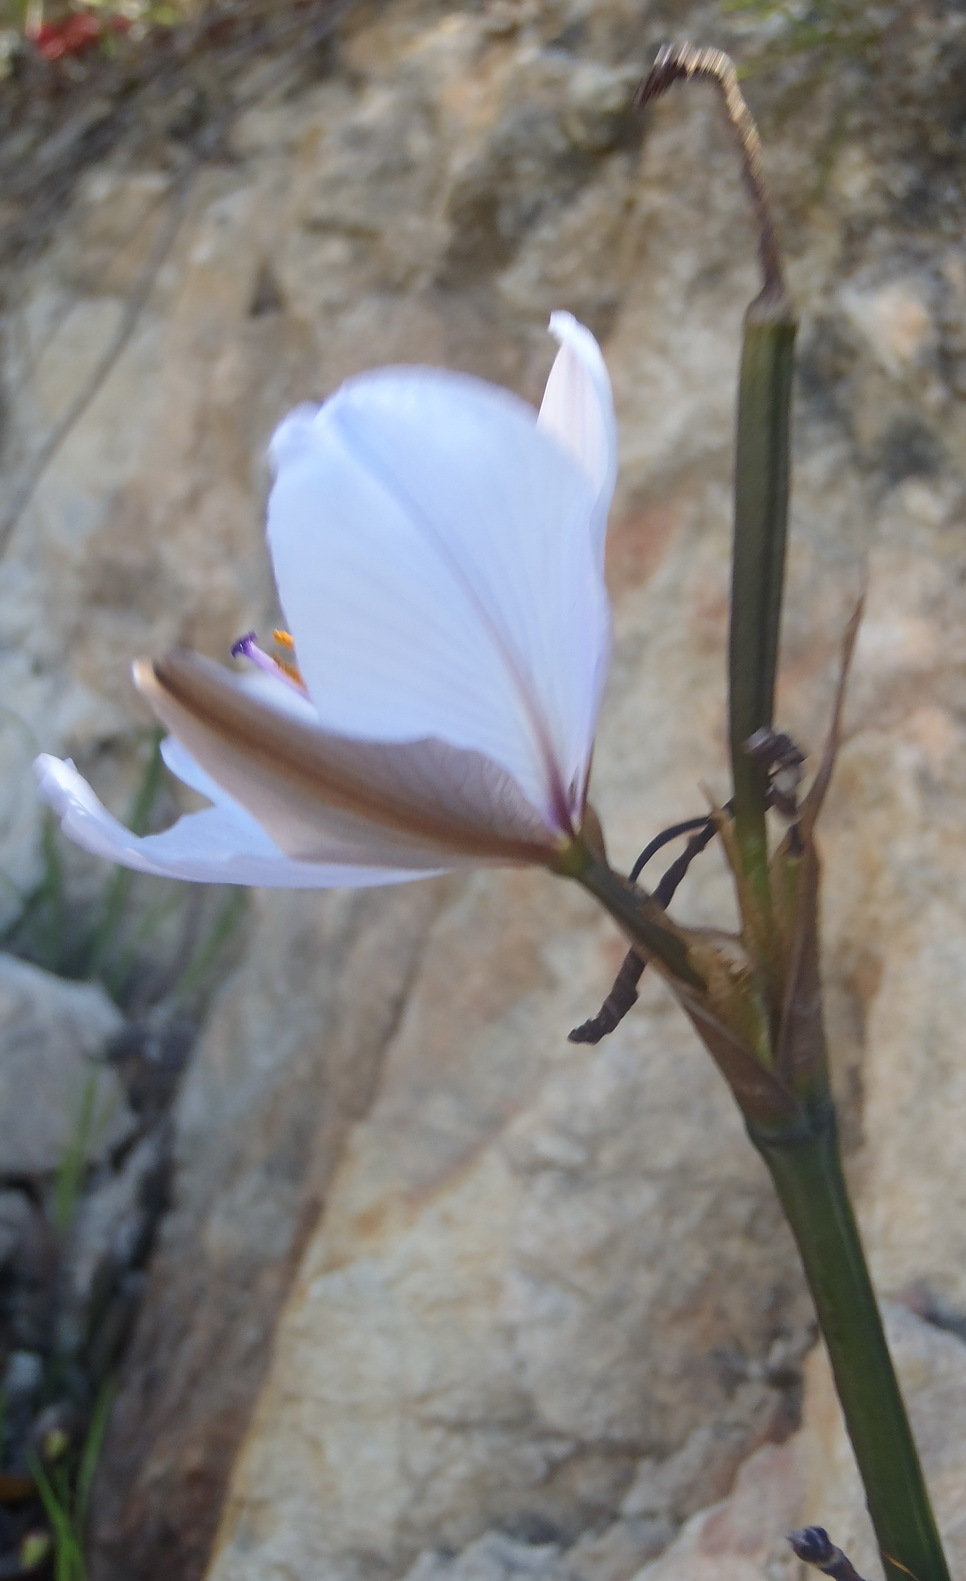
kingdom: Plantae
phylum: Tracheophyta
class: Liliopsida
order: Asparagales
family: Iridaceae
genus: Aristea
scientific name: Aristea spiralis
